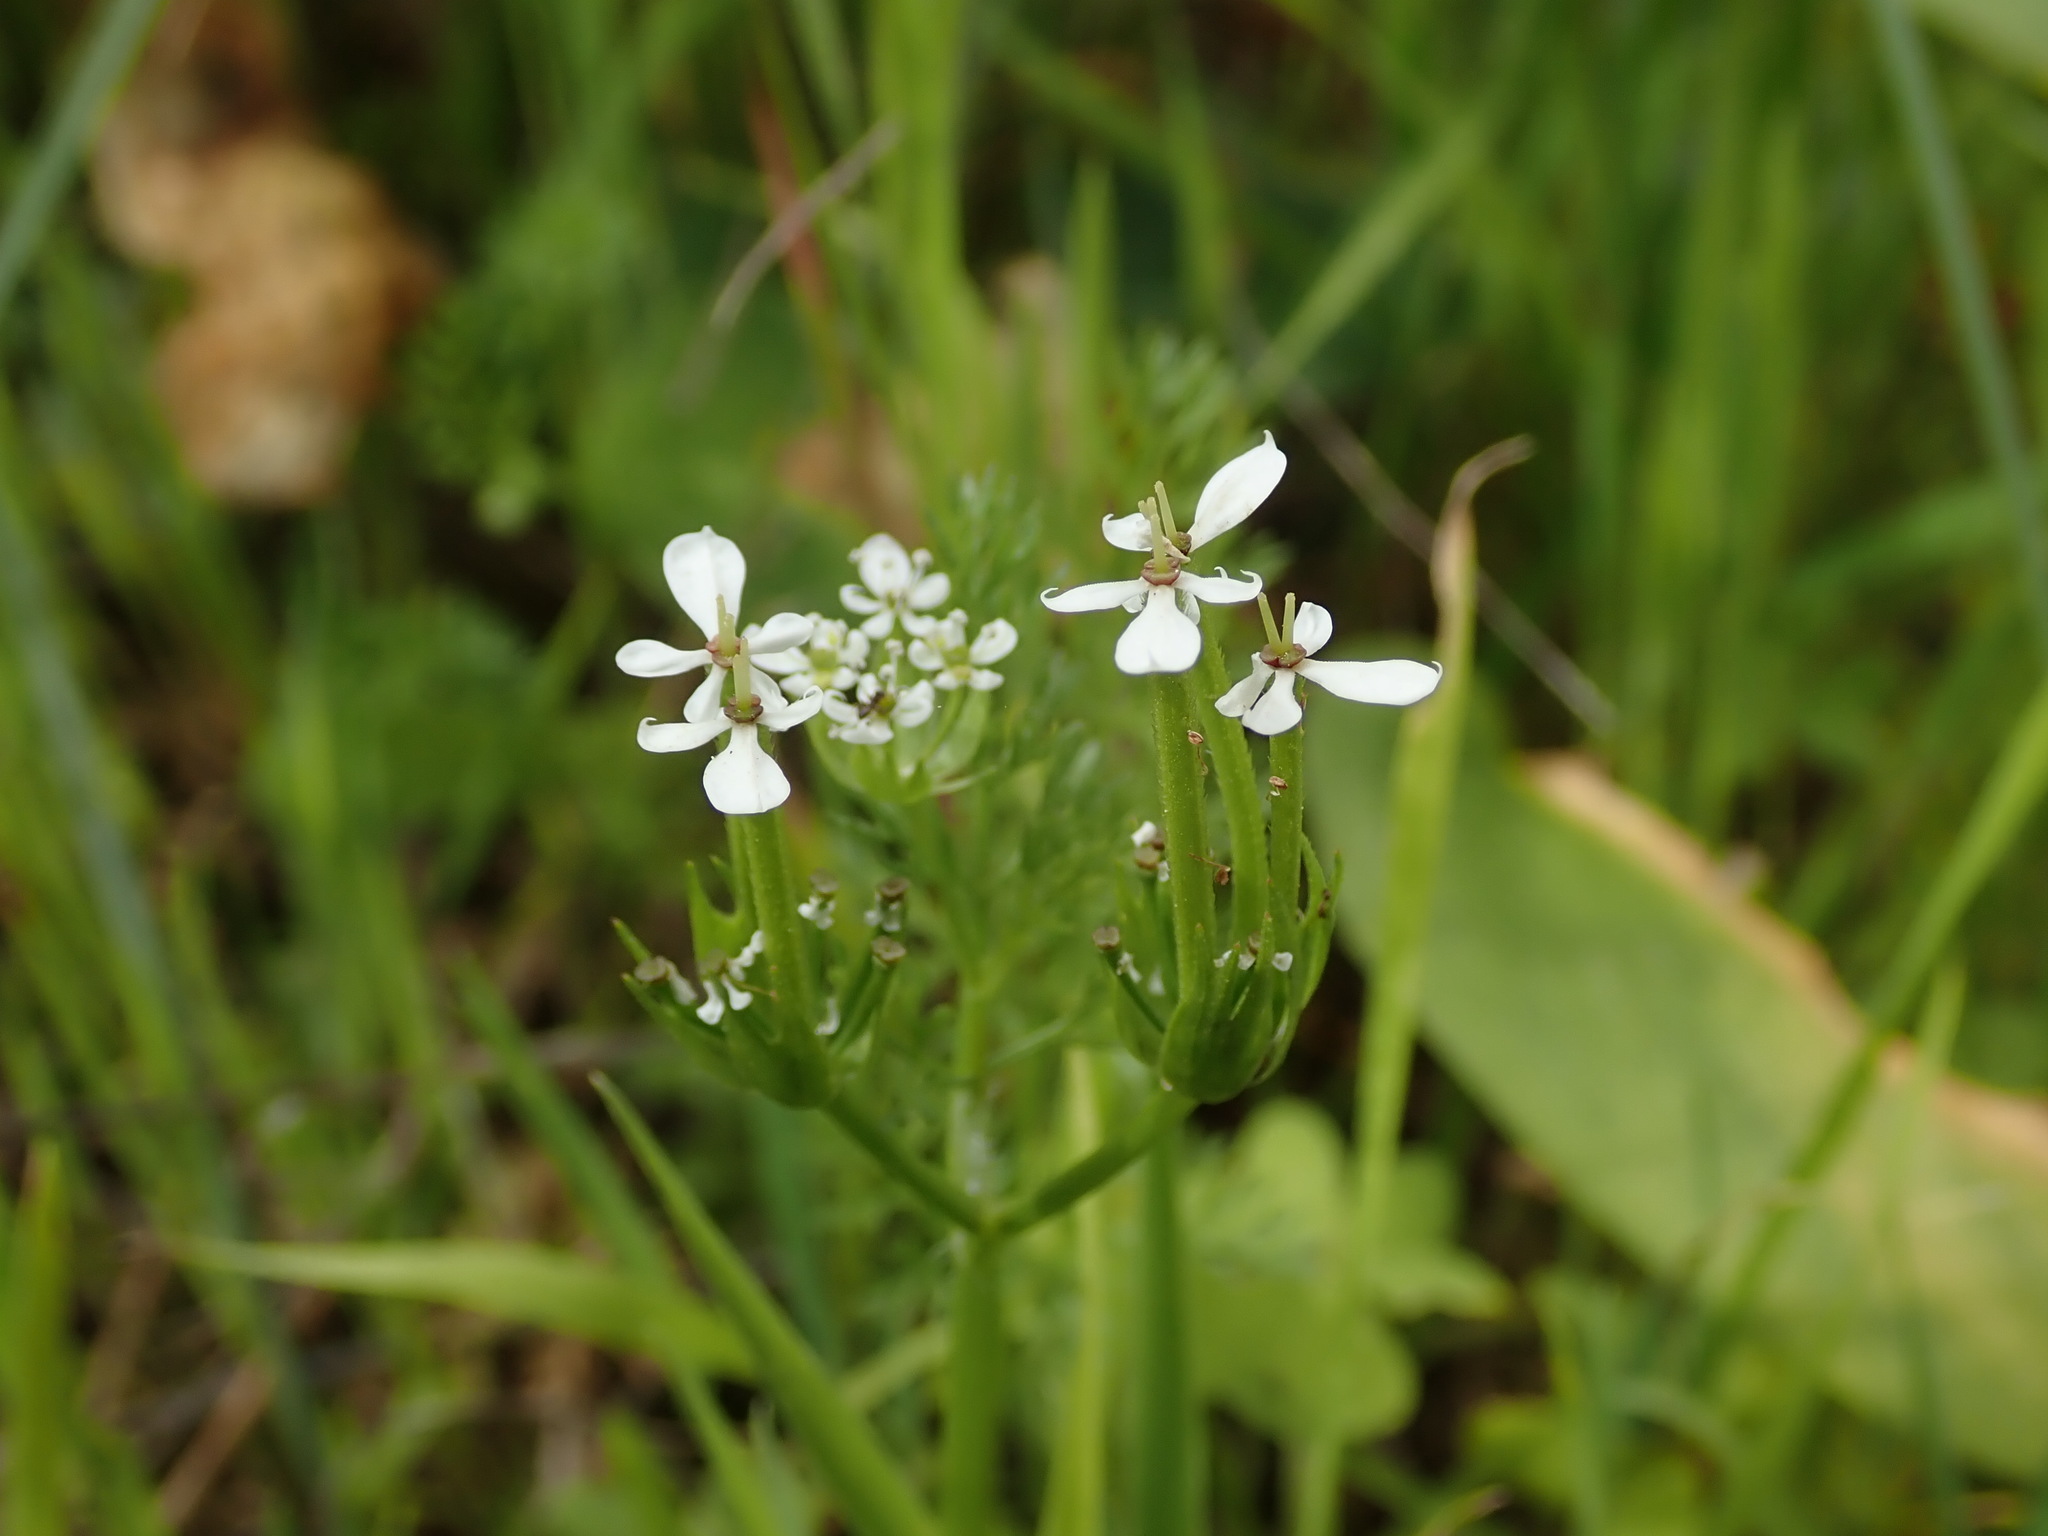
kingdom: Plantae
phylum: Tracheophyta
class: Magnoliopsida
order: Apiales
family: Apiaceae
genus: Scandix
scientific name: Scandix pecten-veneris
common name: Shepherd's-needle
